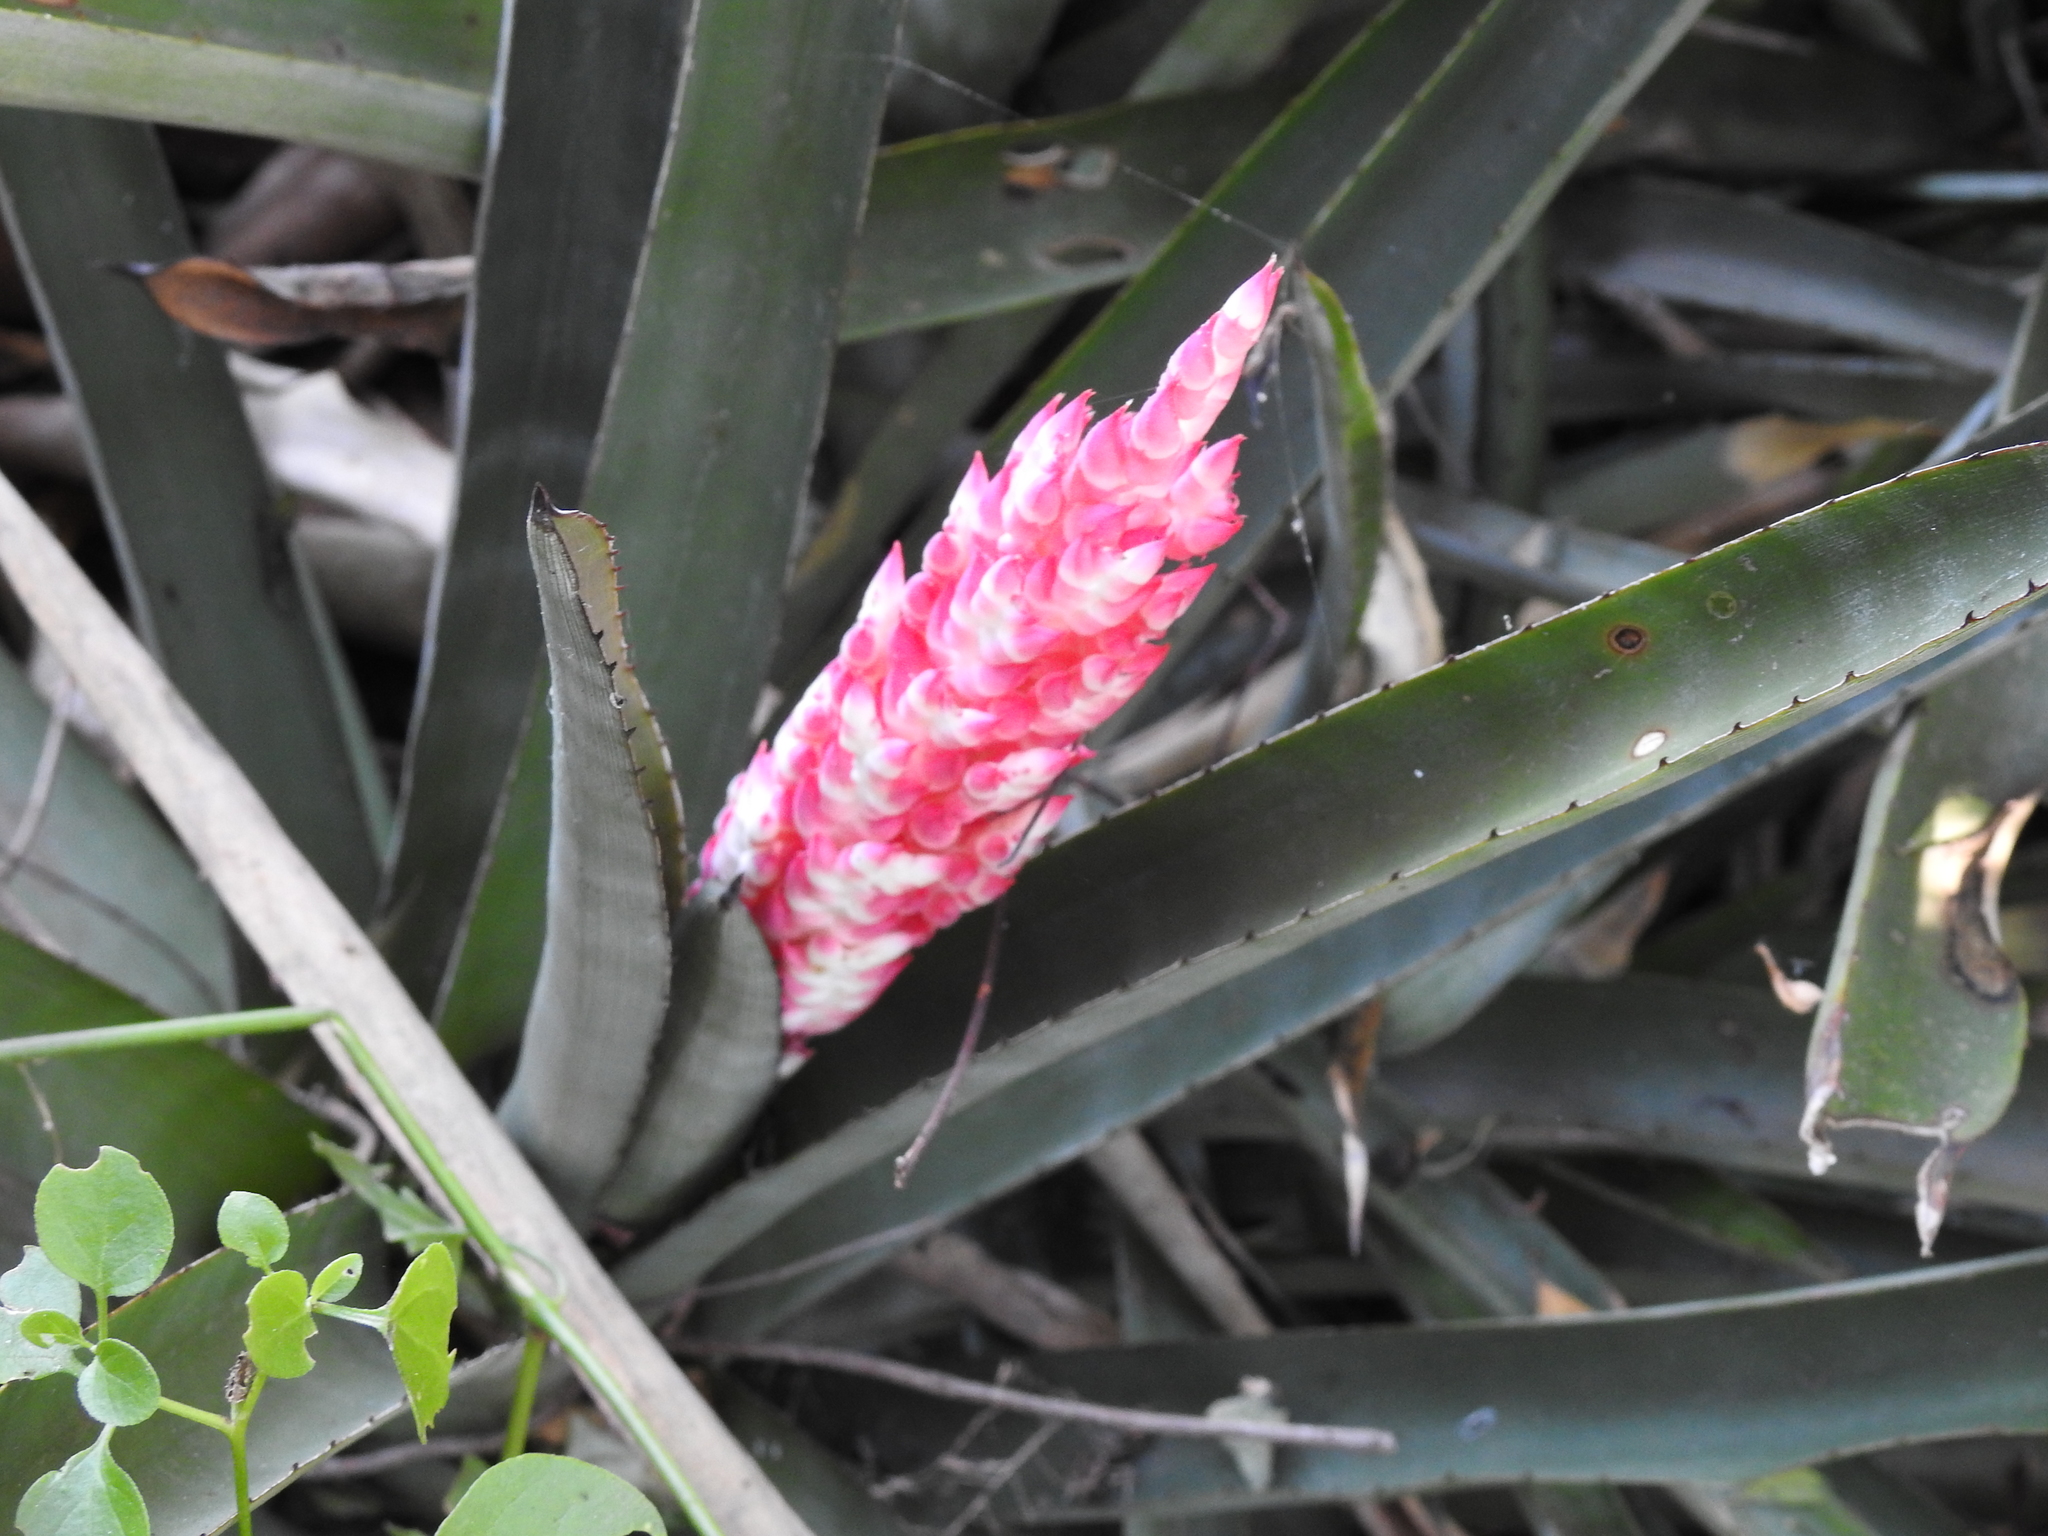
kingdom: Plantae
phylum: Tracheophyta
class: Liliopsida
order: Poales
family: Bromeliaceae
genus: Aechmea
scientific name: Aechmea distichantha
